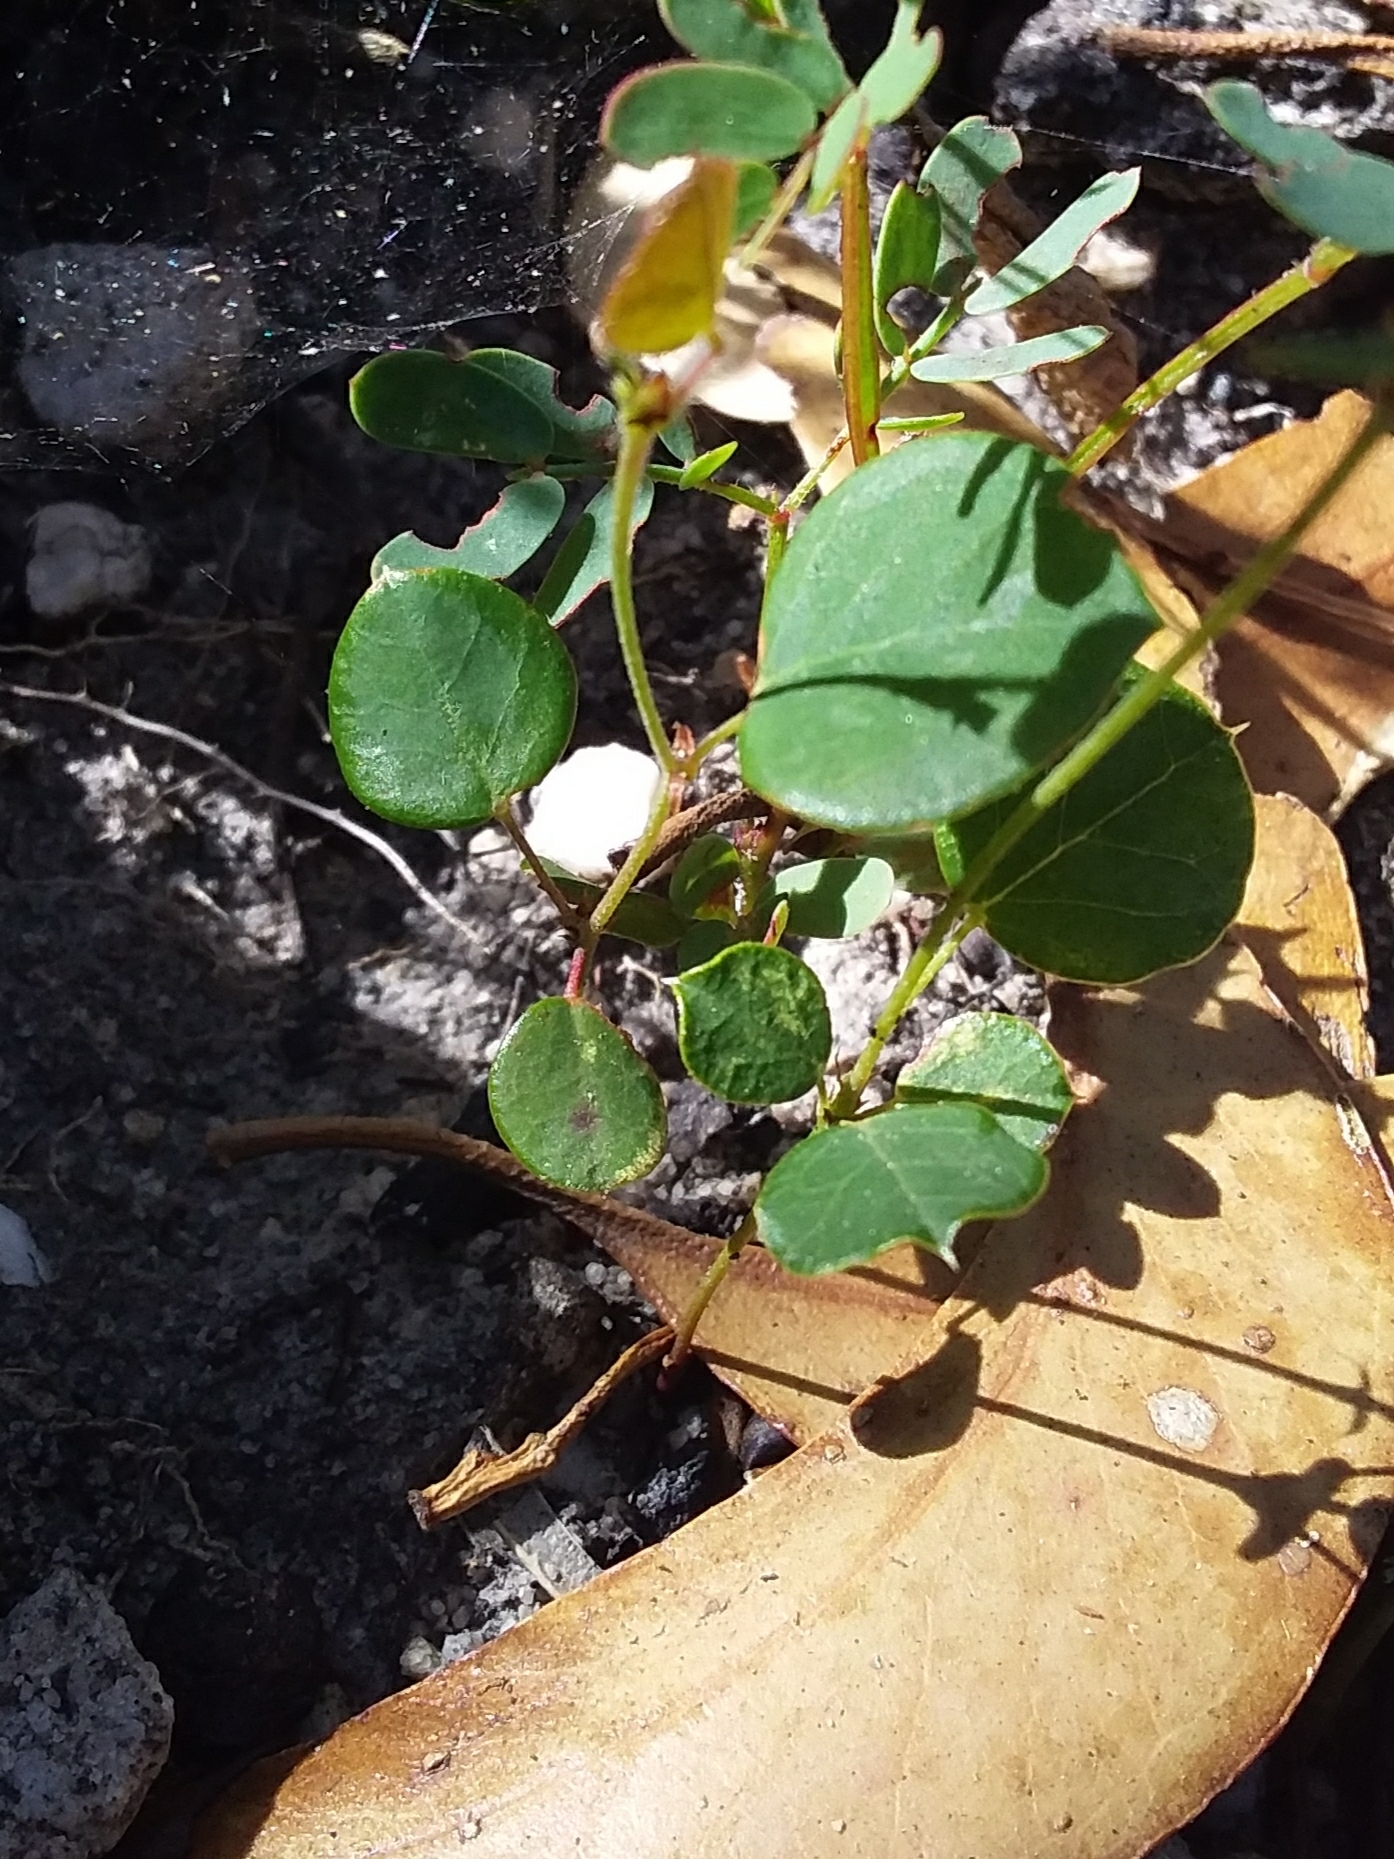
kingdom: Plantae
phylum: Tracheophyta
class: Magnoliopsida
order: Fabales
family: Fabaceae
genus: Platylobium
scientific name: Platylobium obtusangulum
